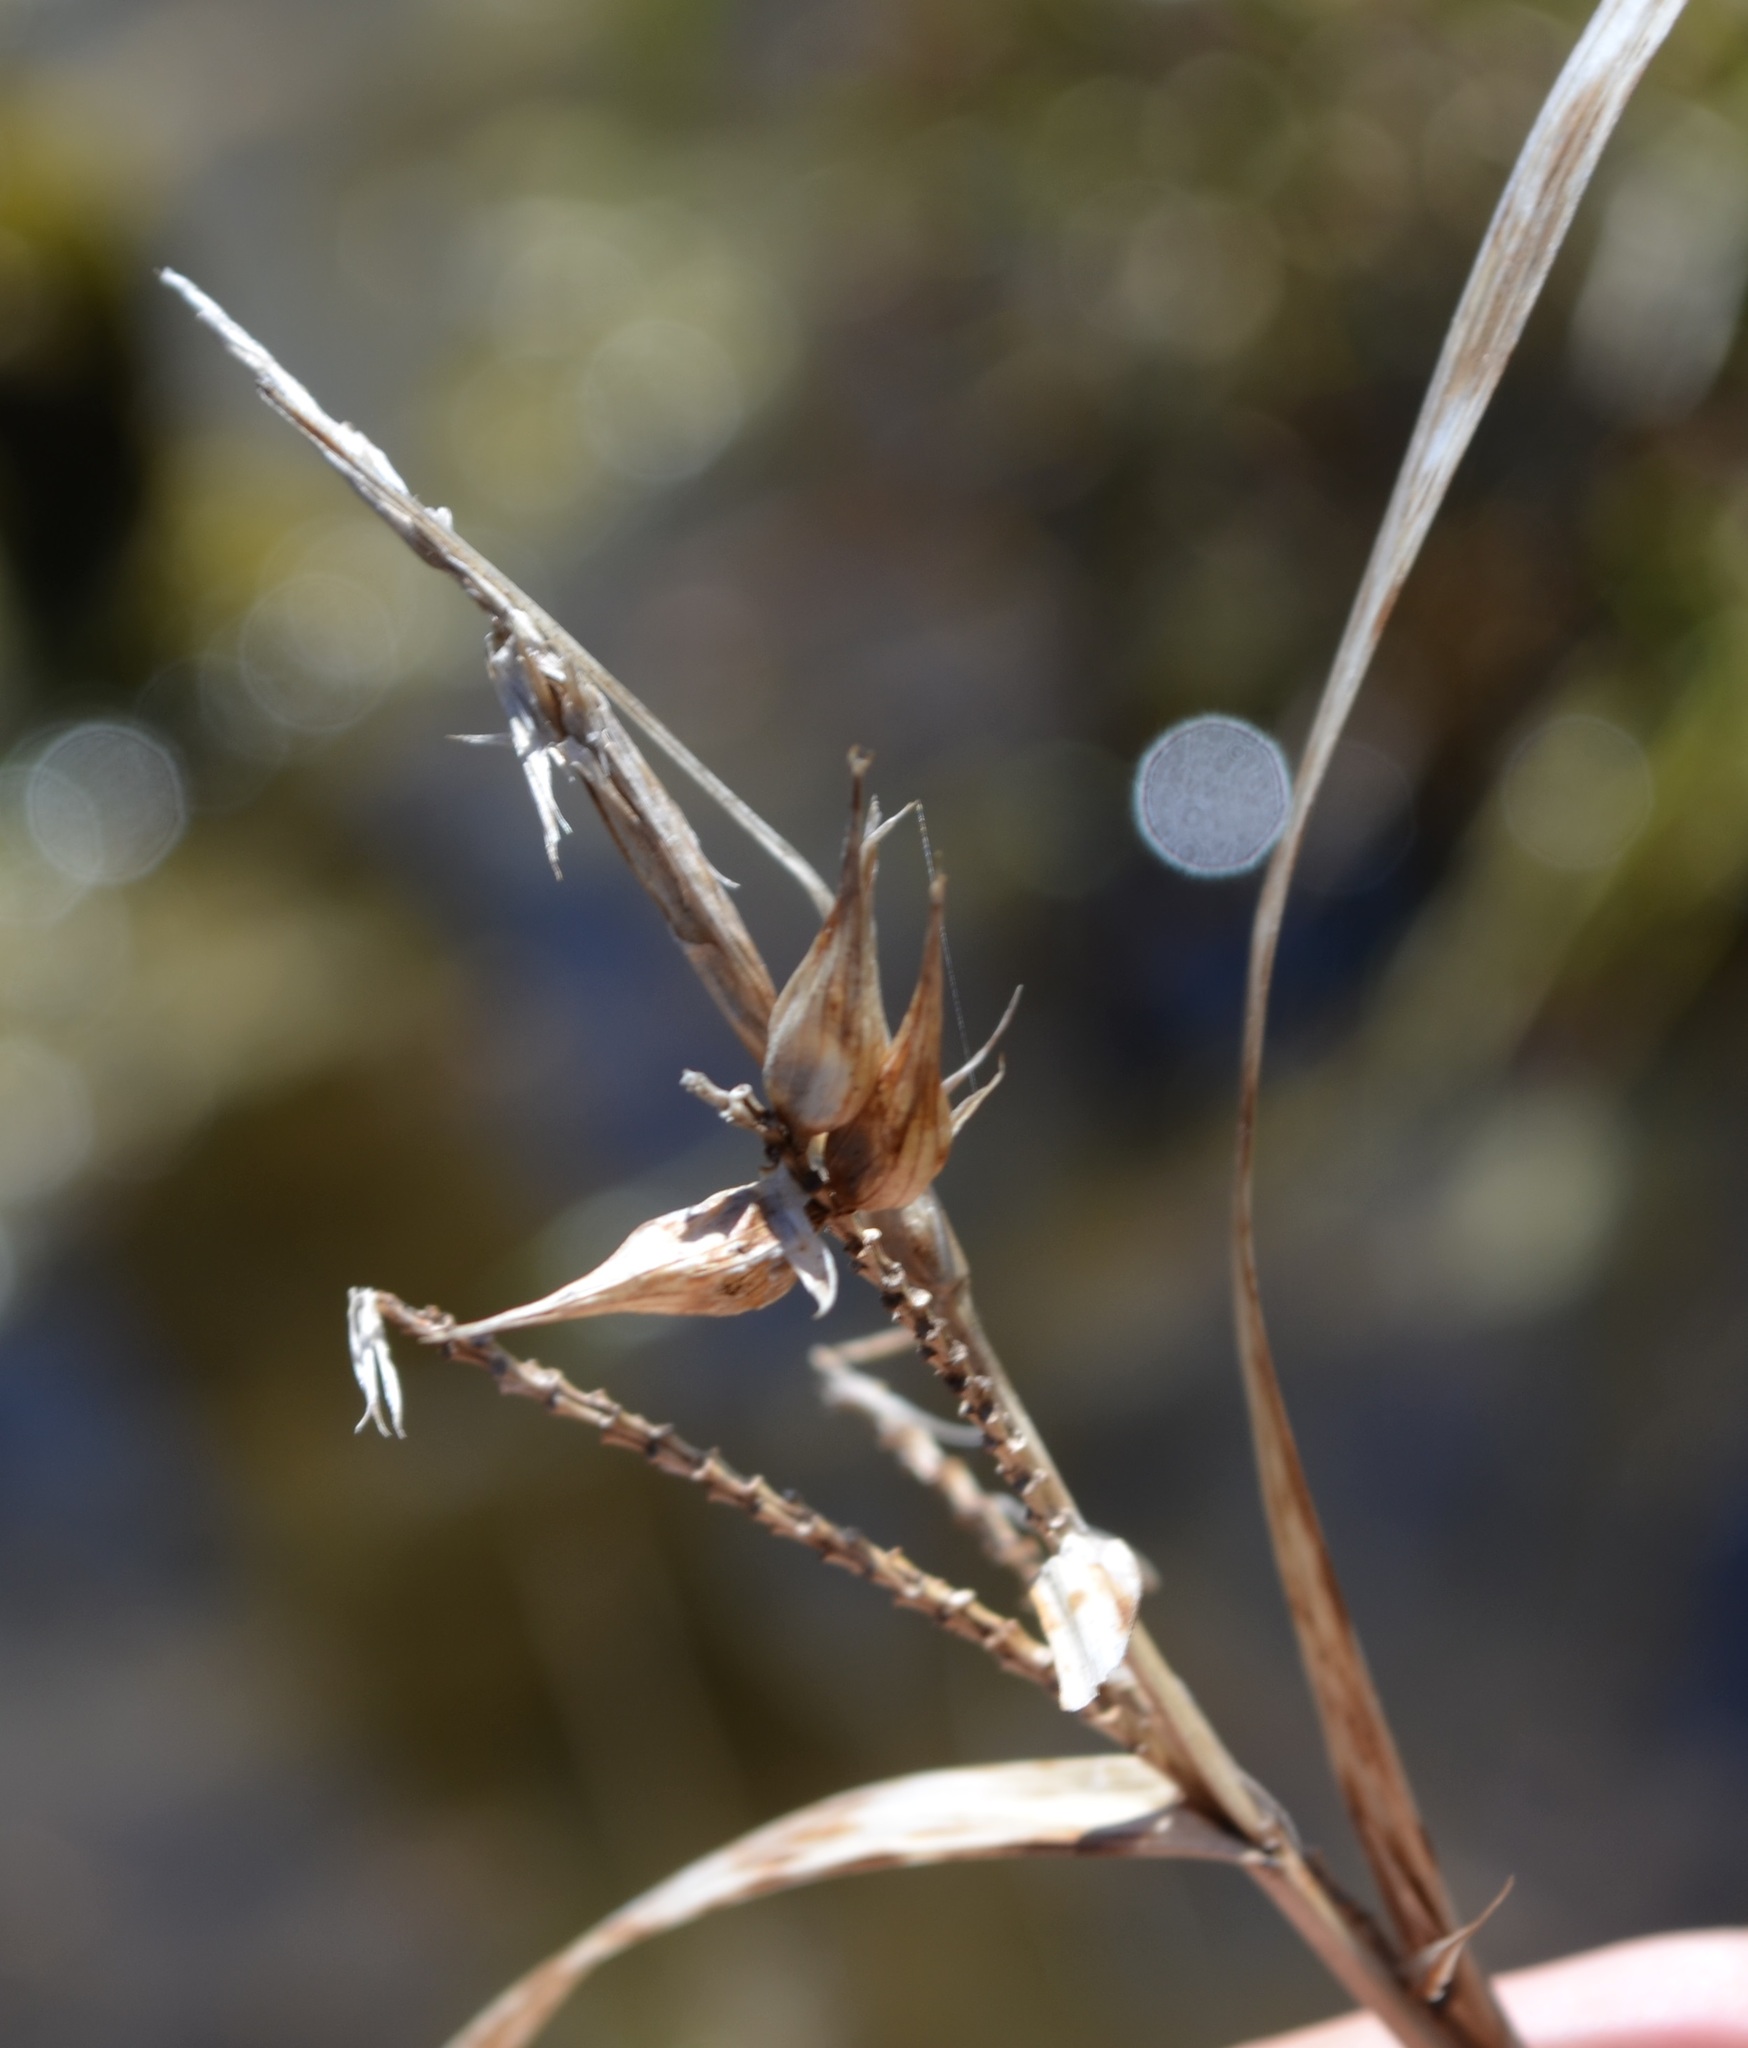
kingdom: Plantae
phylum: Tracheophyta
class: Liliopsida
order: Poales
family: Cyperaceae
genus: Carex
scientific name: Carex lupulina
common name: Hop sedge
